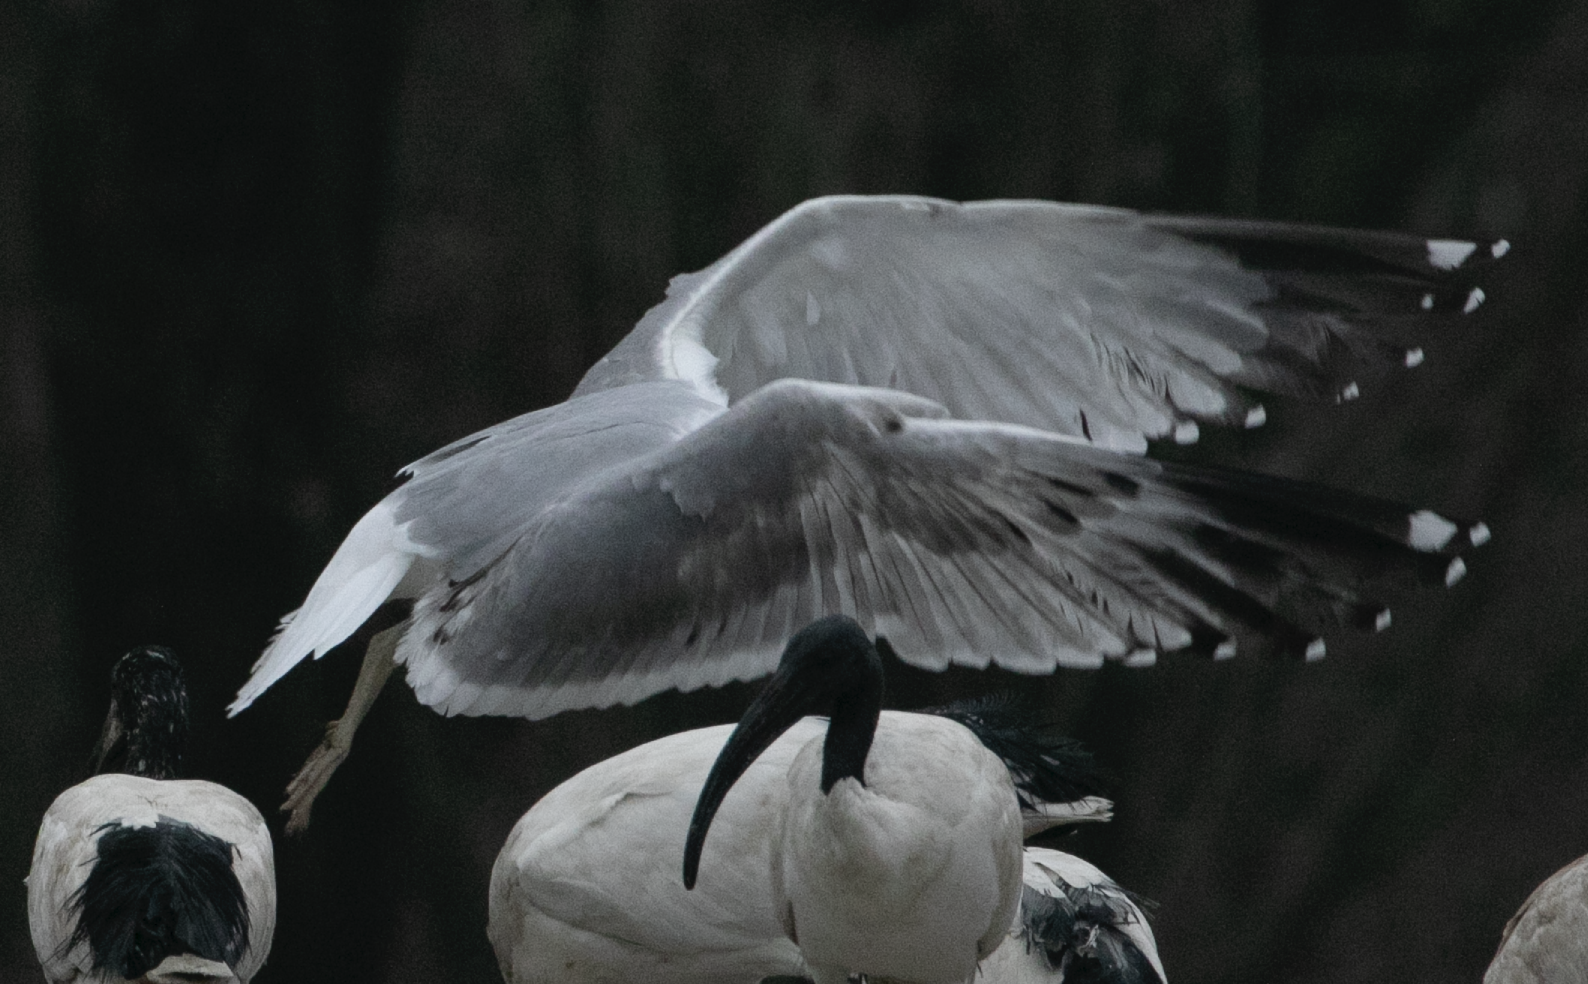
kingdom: Animalia
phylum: Chordata
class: Aves
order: Charadriiformes
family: Laridae
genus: Larus
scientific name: Larus michahellis
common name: Yellow-legged gull
